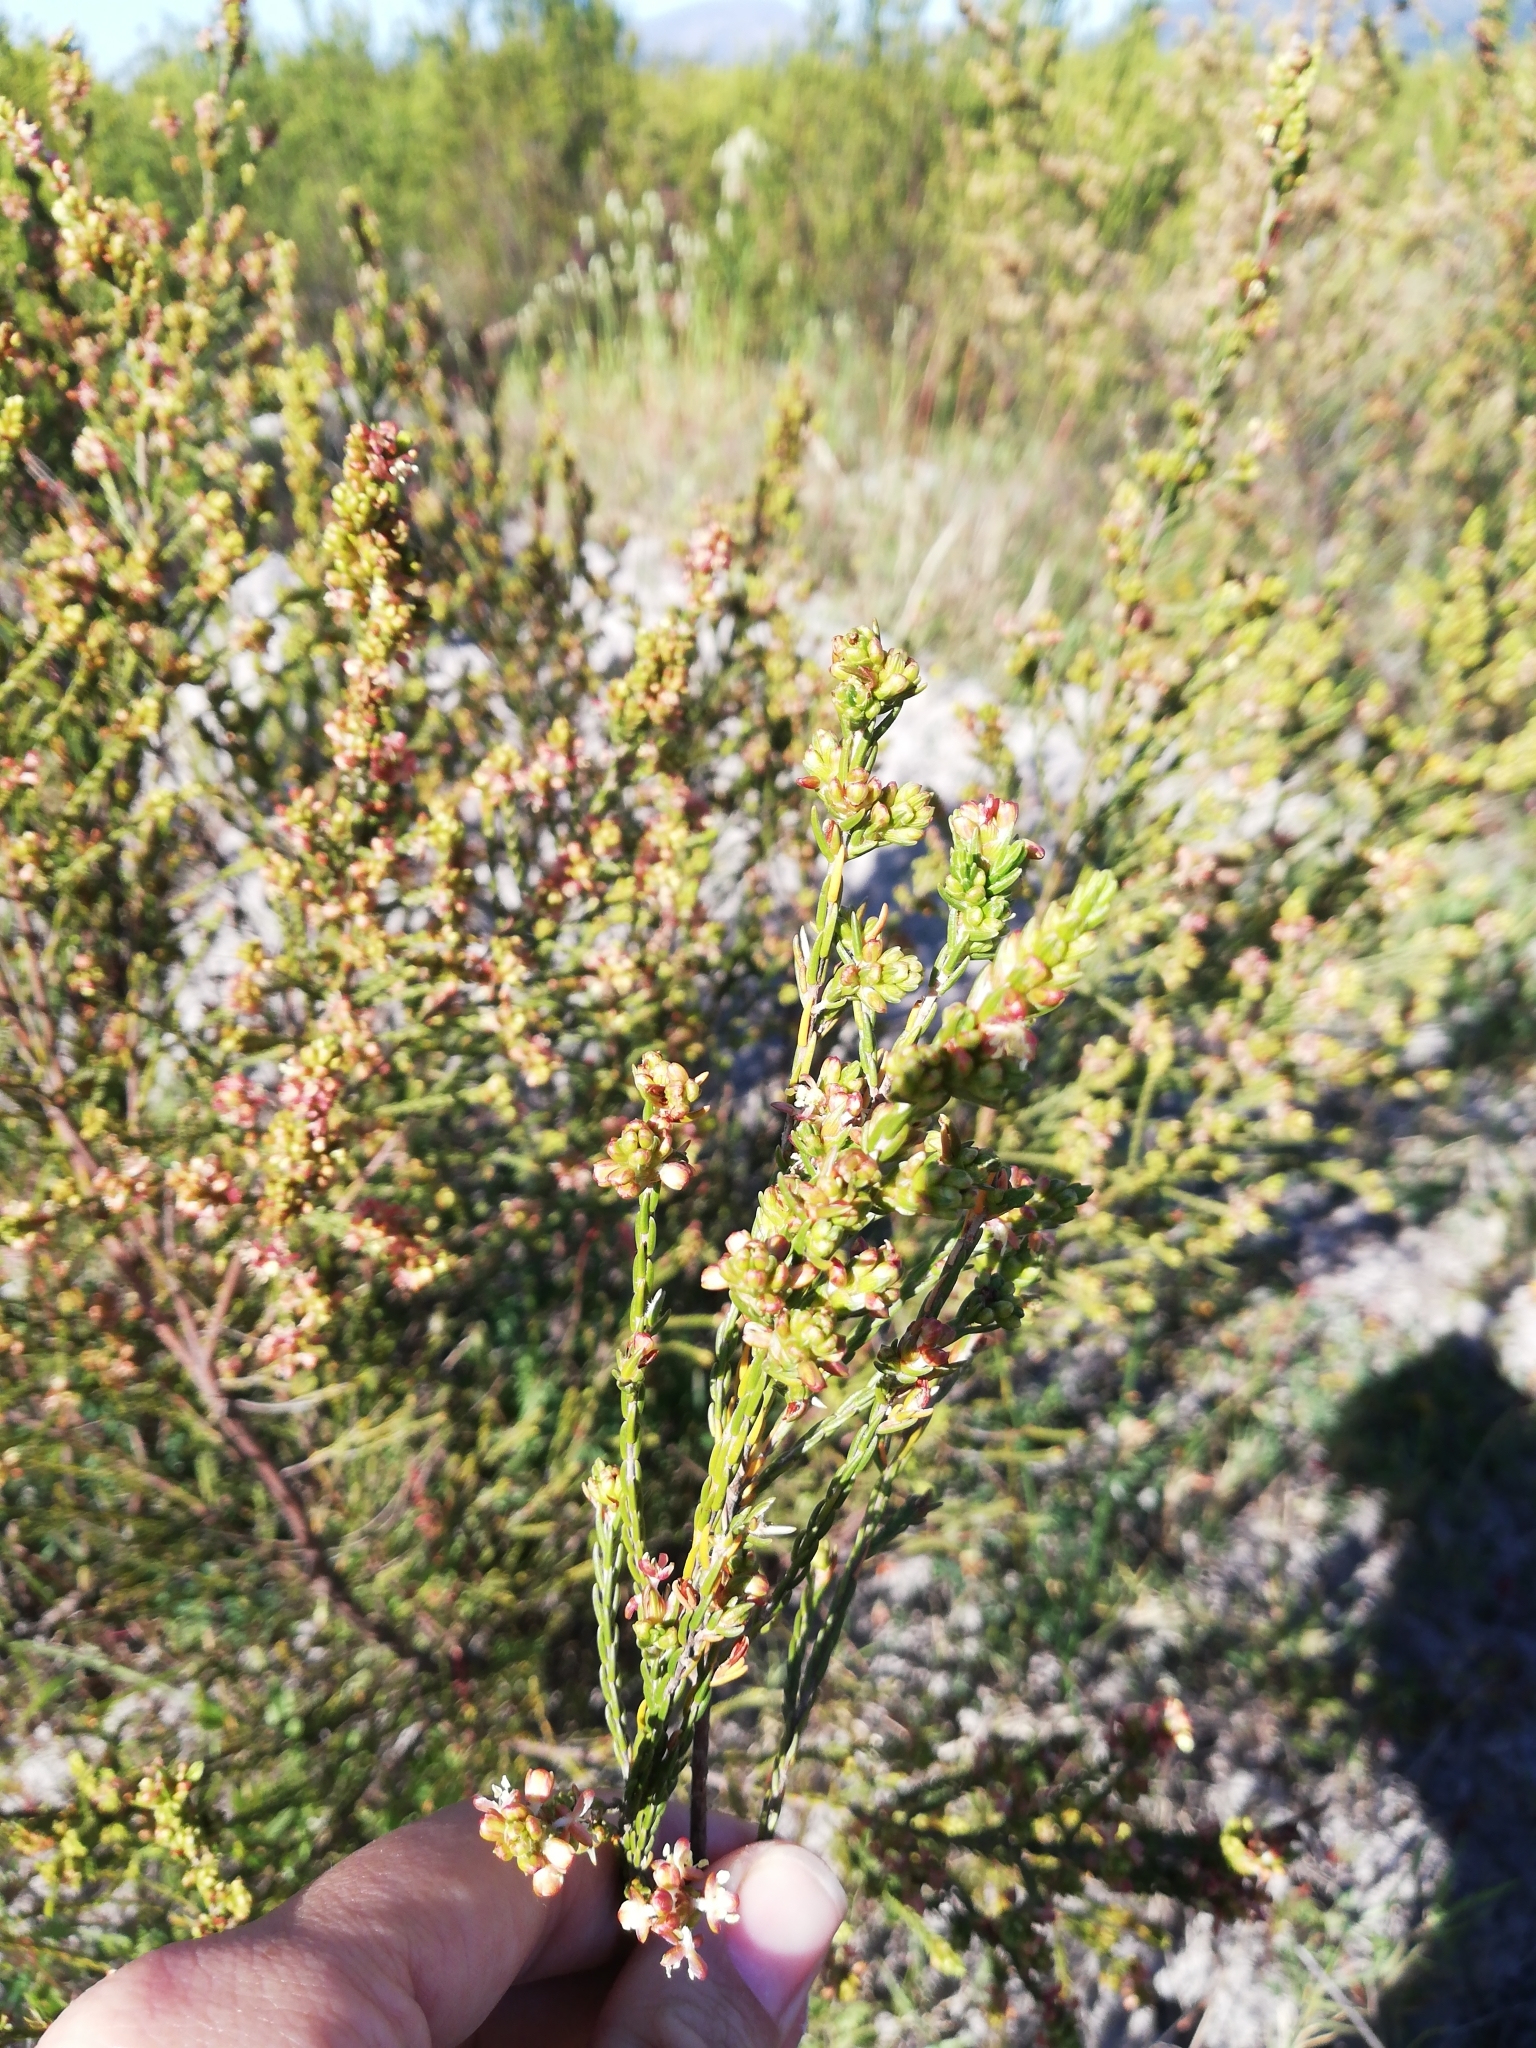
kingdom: Plantae
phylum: Tracheophyta
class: Magnoliopsida
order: Malvales
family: Thymelaeaceae
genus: Passerina
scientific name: Passerina corymbosa
